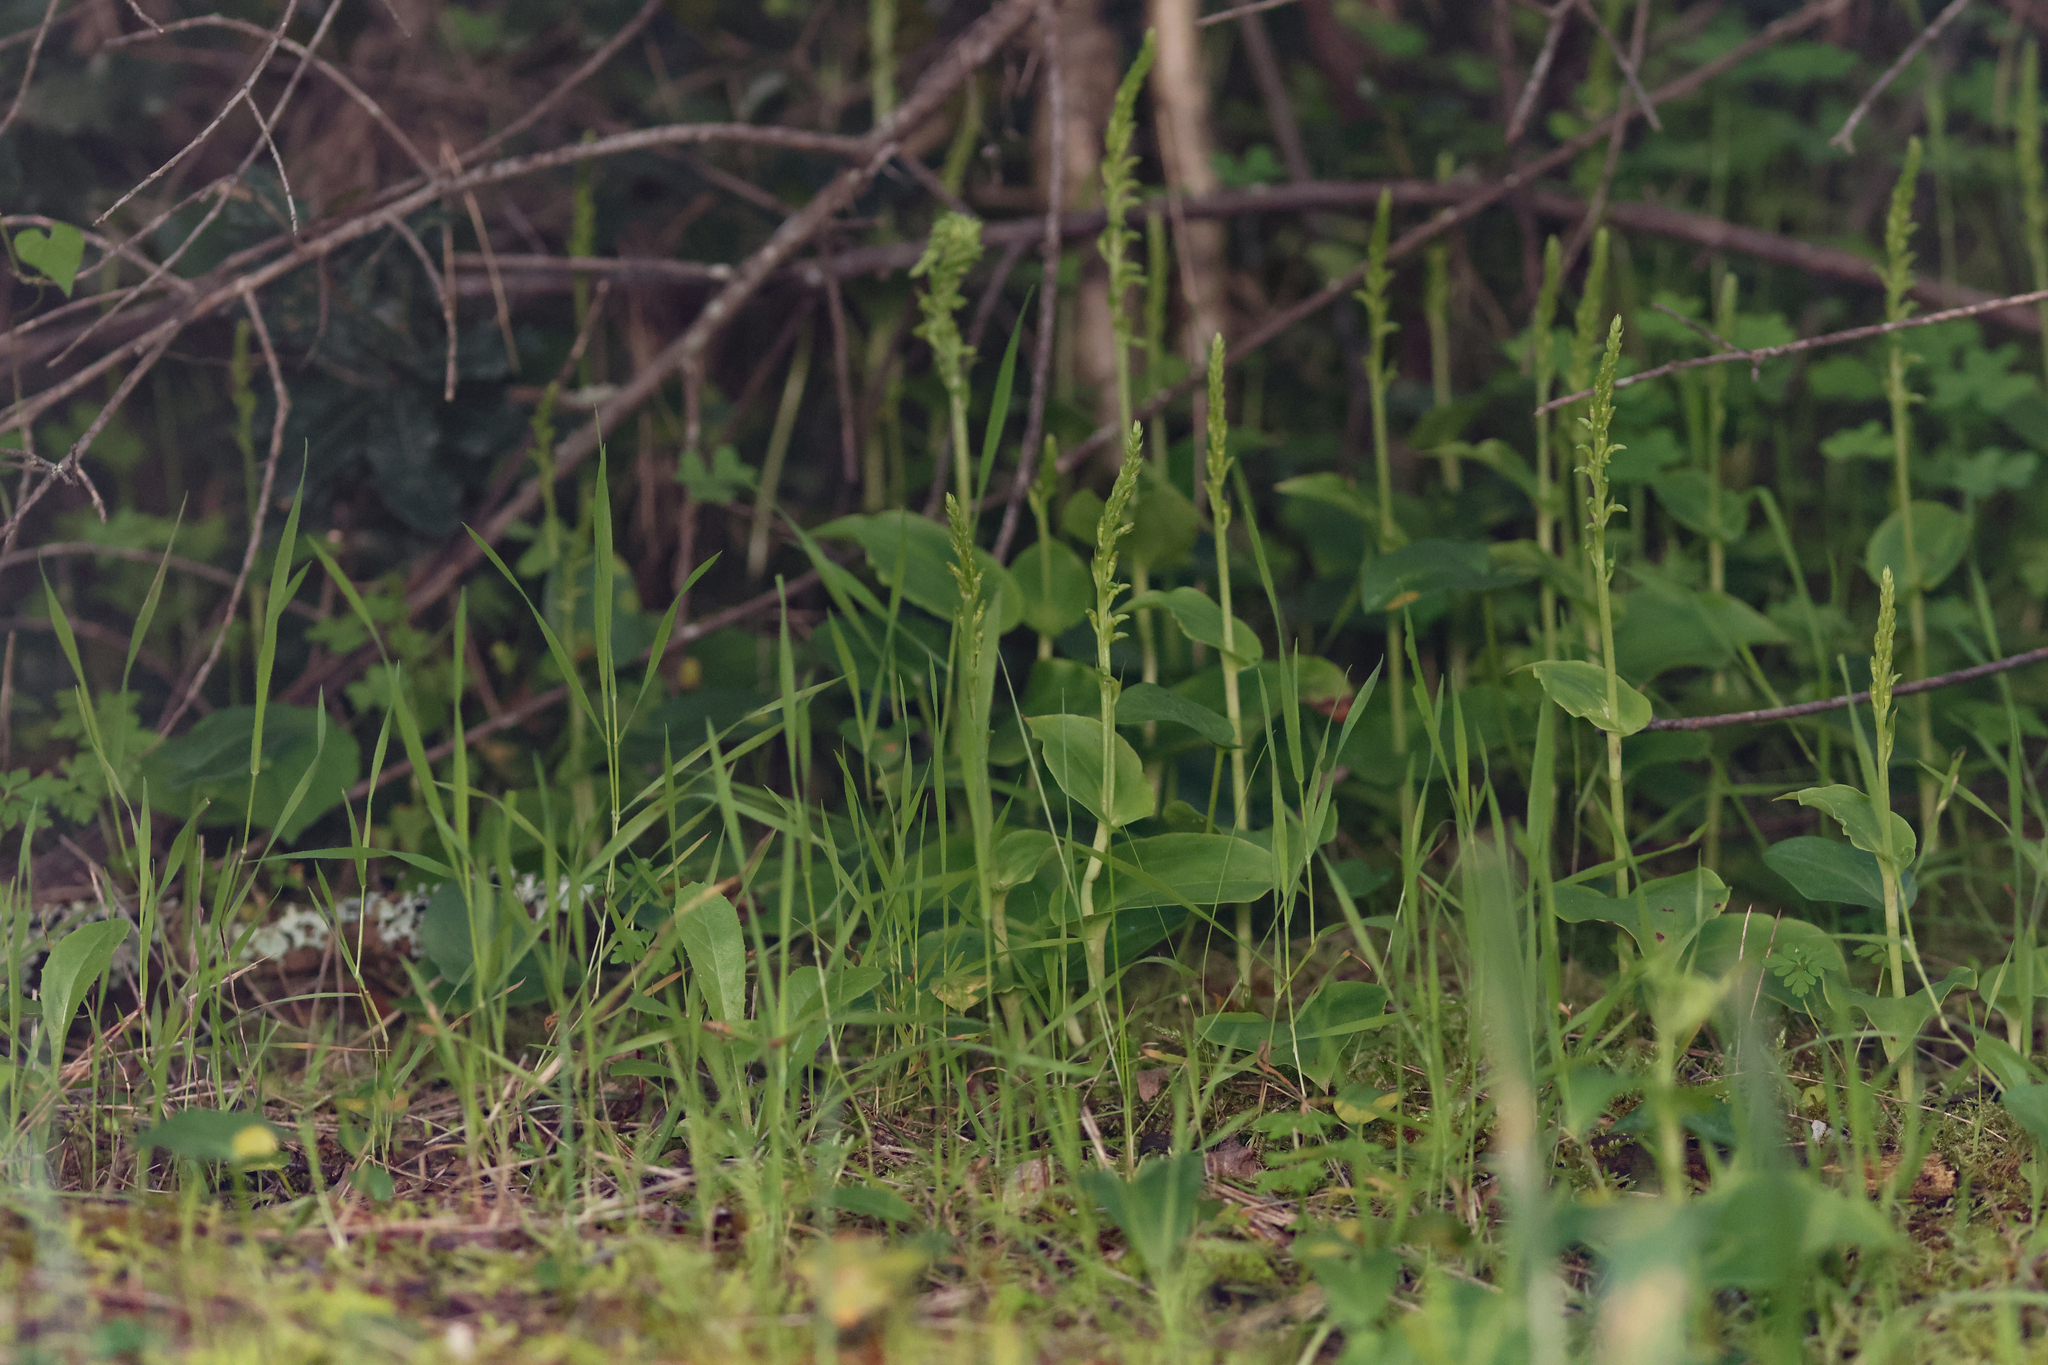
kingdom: Plantae
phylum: Tracheophyta
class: Liliopsida
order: Asparagales
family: Orchidaceae
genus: Gennaria
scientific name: Gennaria diphylla
